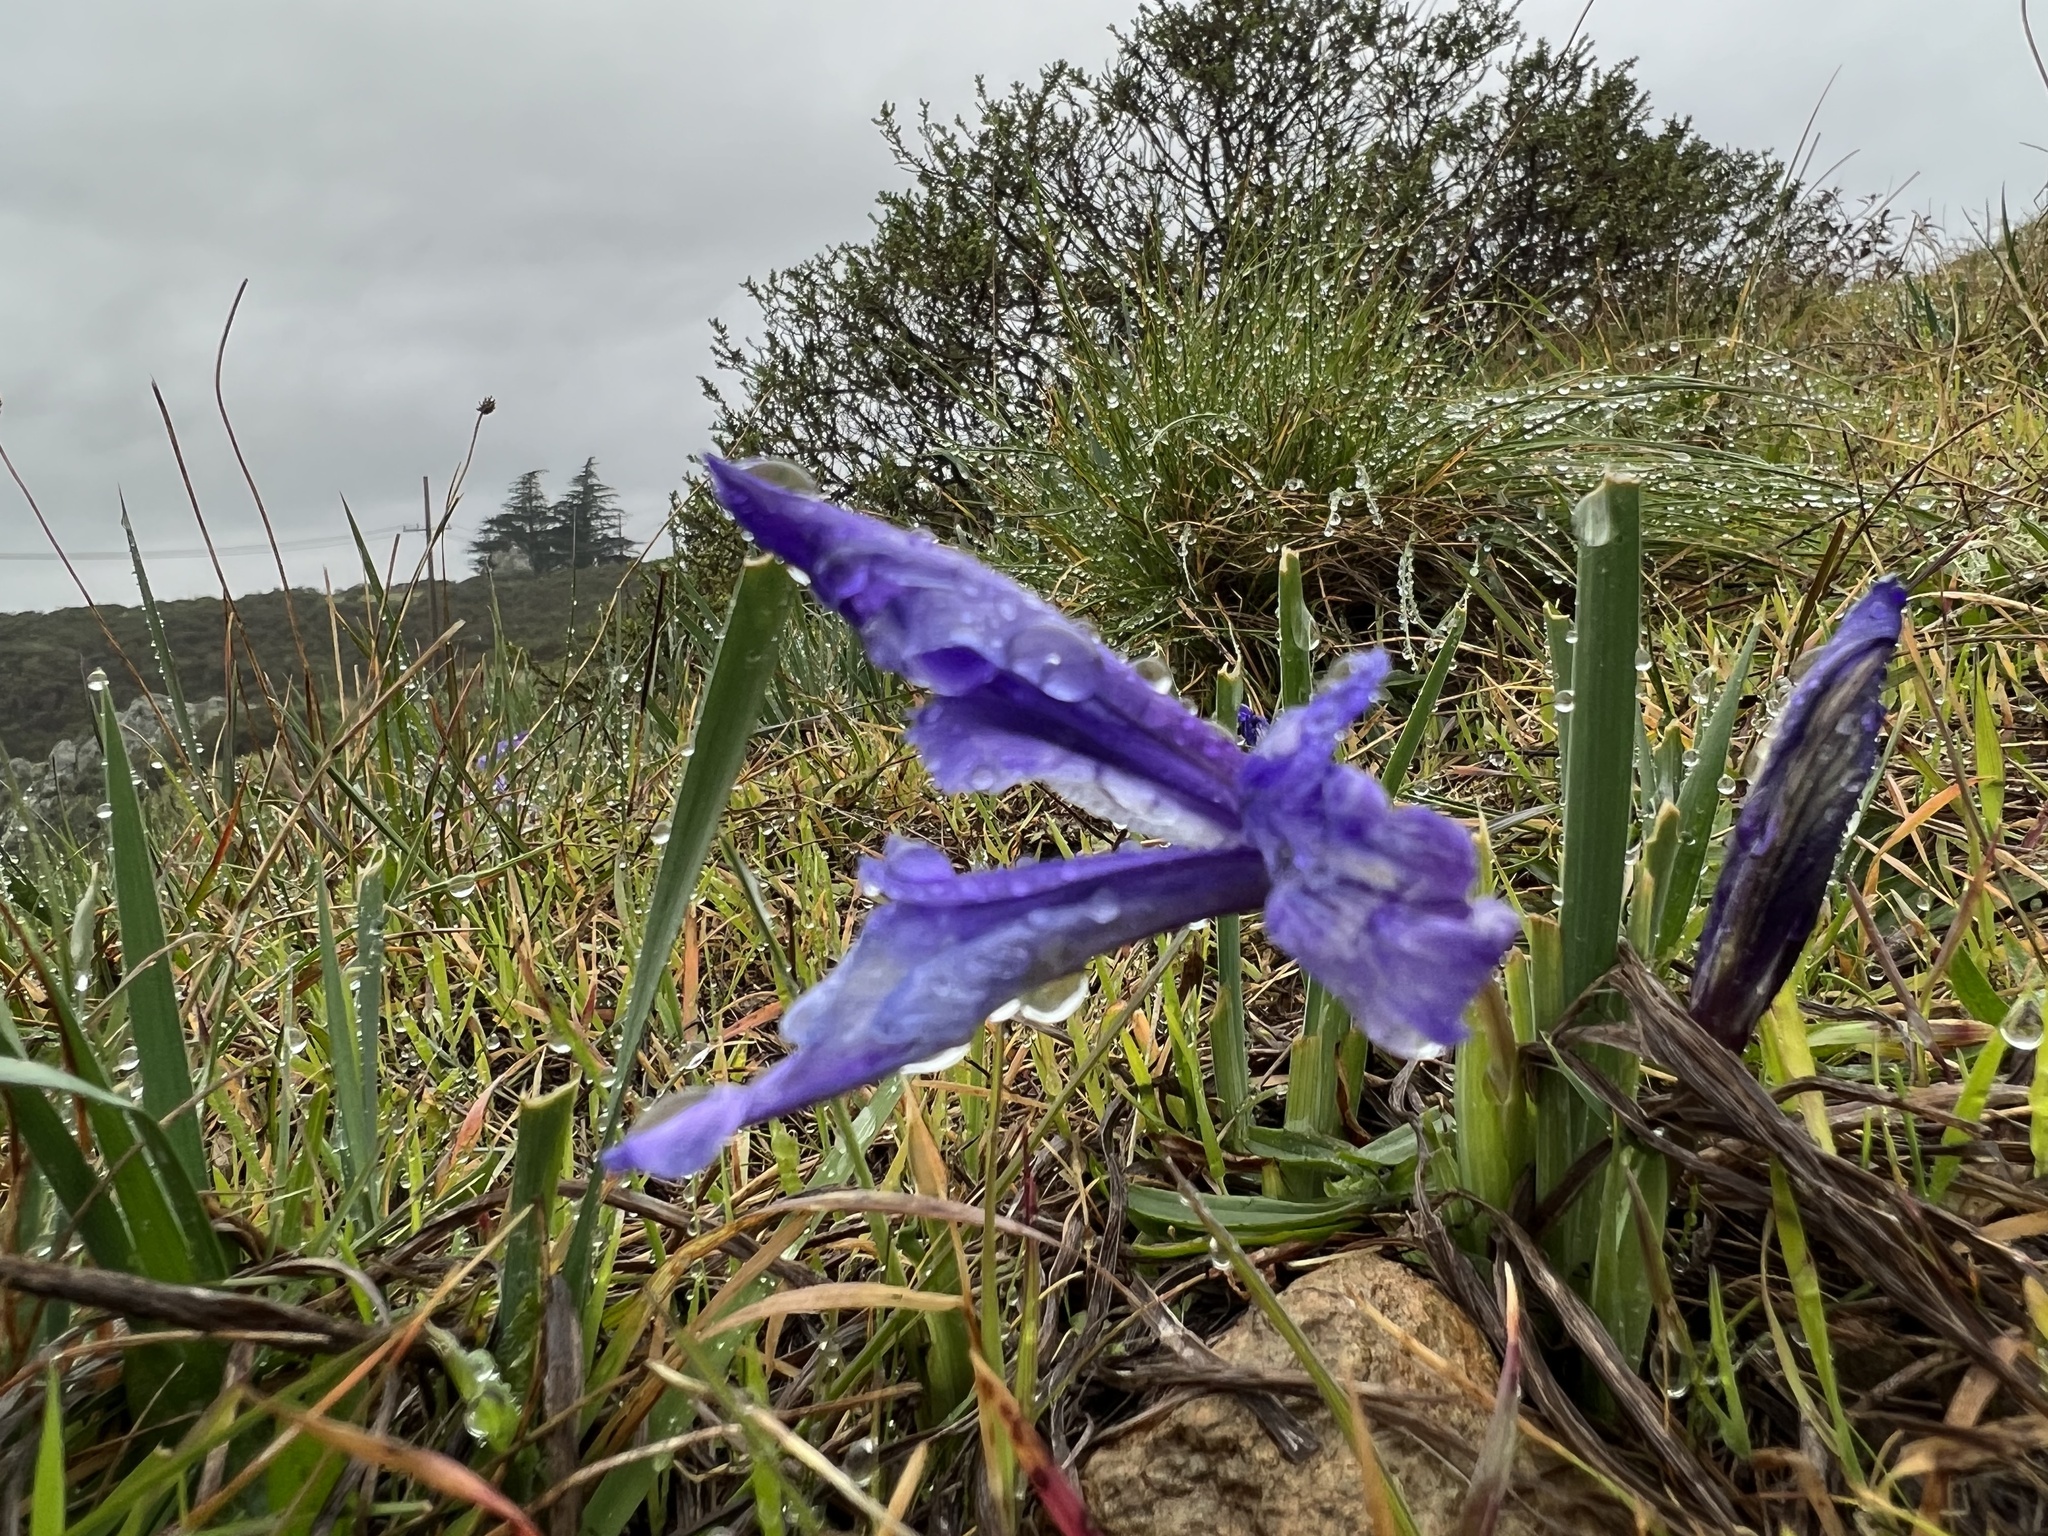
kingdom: Plantae
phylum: Tracheophyta
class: Liliopsida
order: Asparagales
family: Iridaceae
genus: Iris
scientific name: Iris macrosiphon
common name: Ground iris
